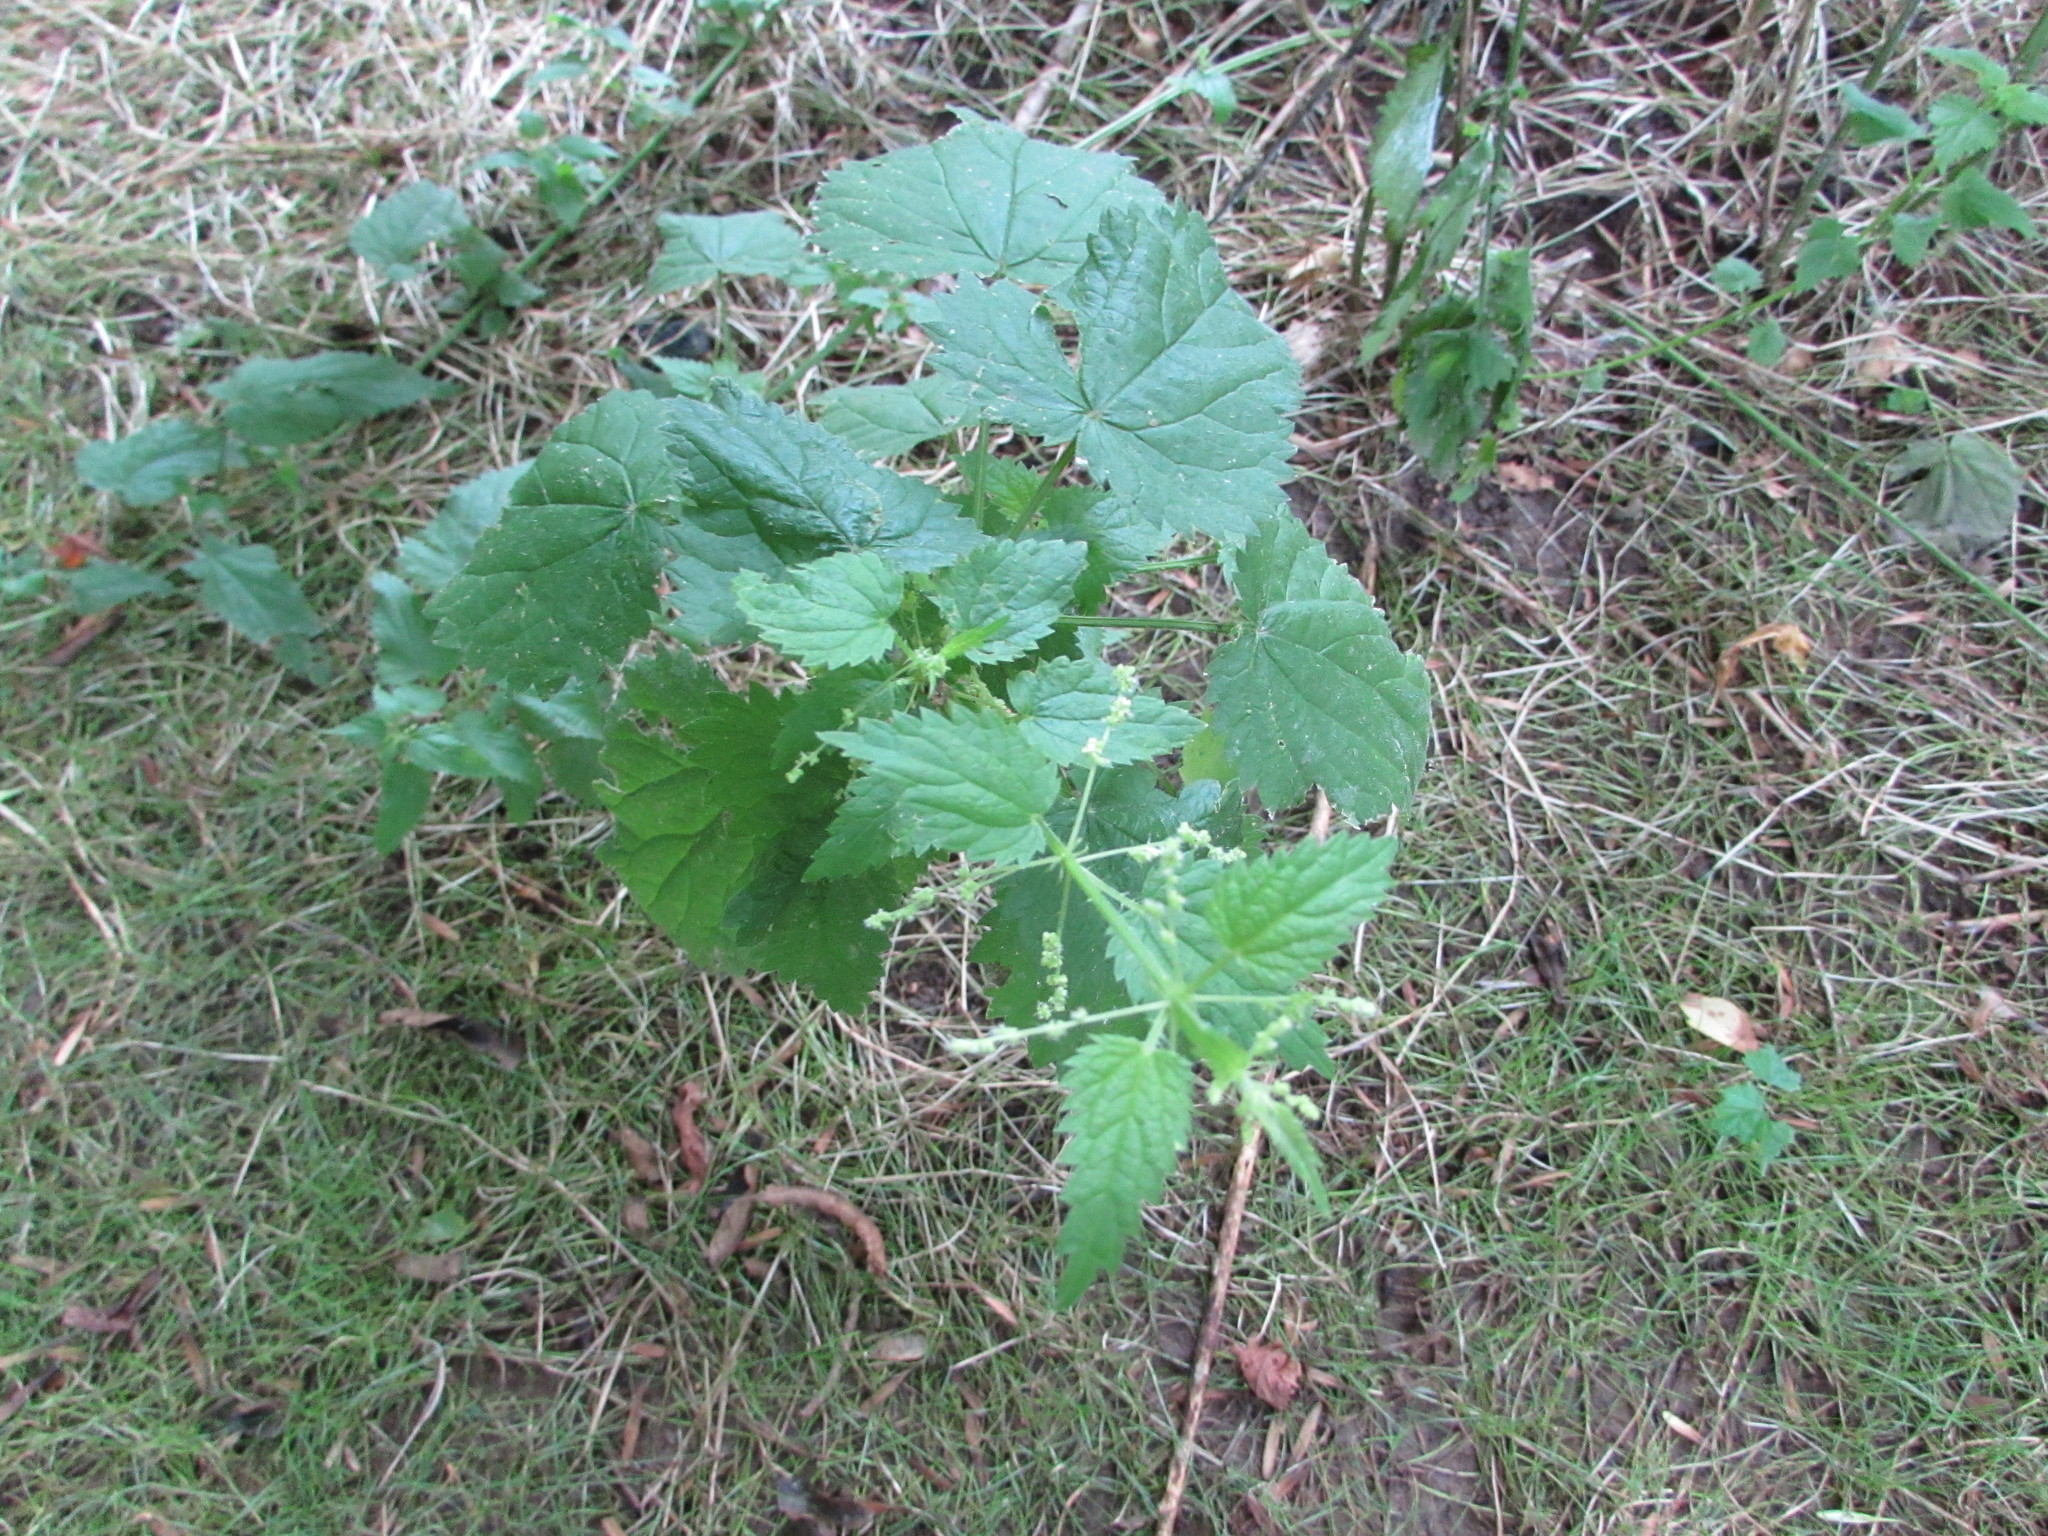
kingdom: Plantae
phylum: Tracheophyta
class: Magnoliopsida
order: Rosales
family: Urticaceae
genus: Urtica
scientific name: Urtica dioica
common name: Common nettle
